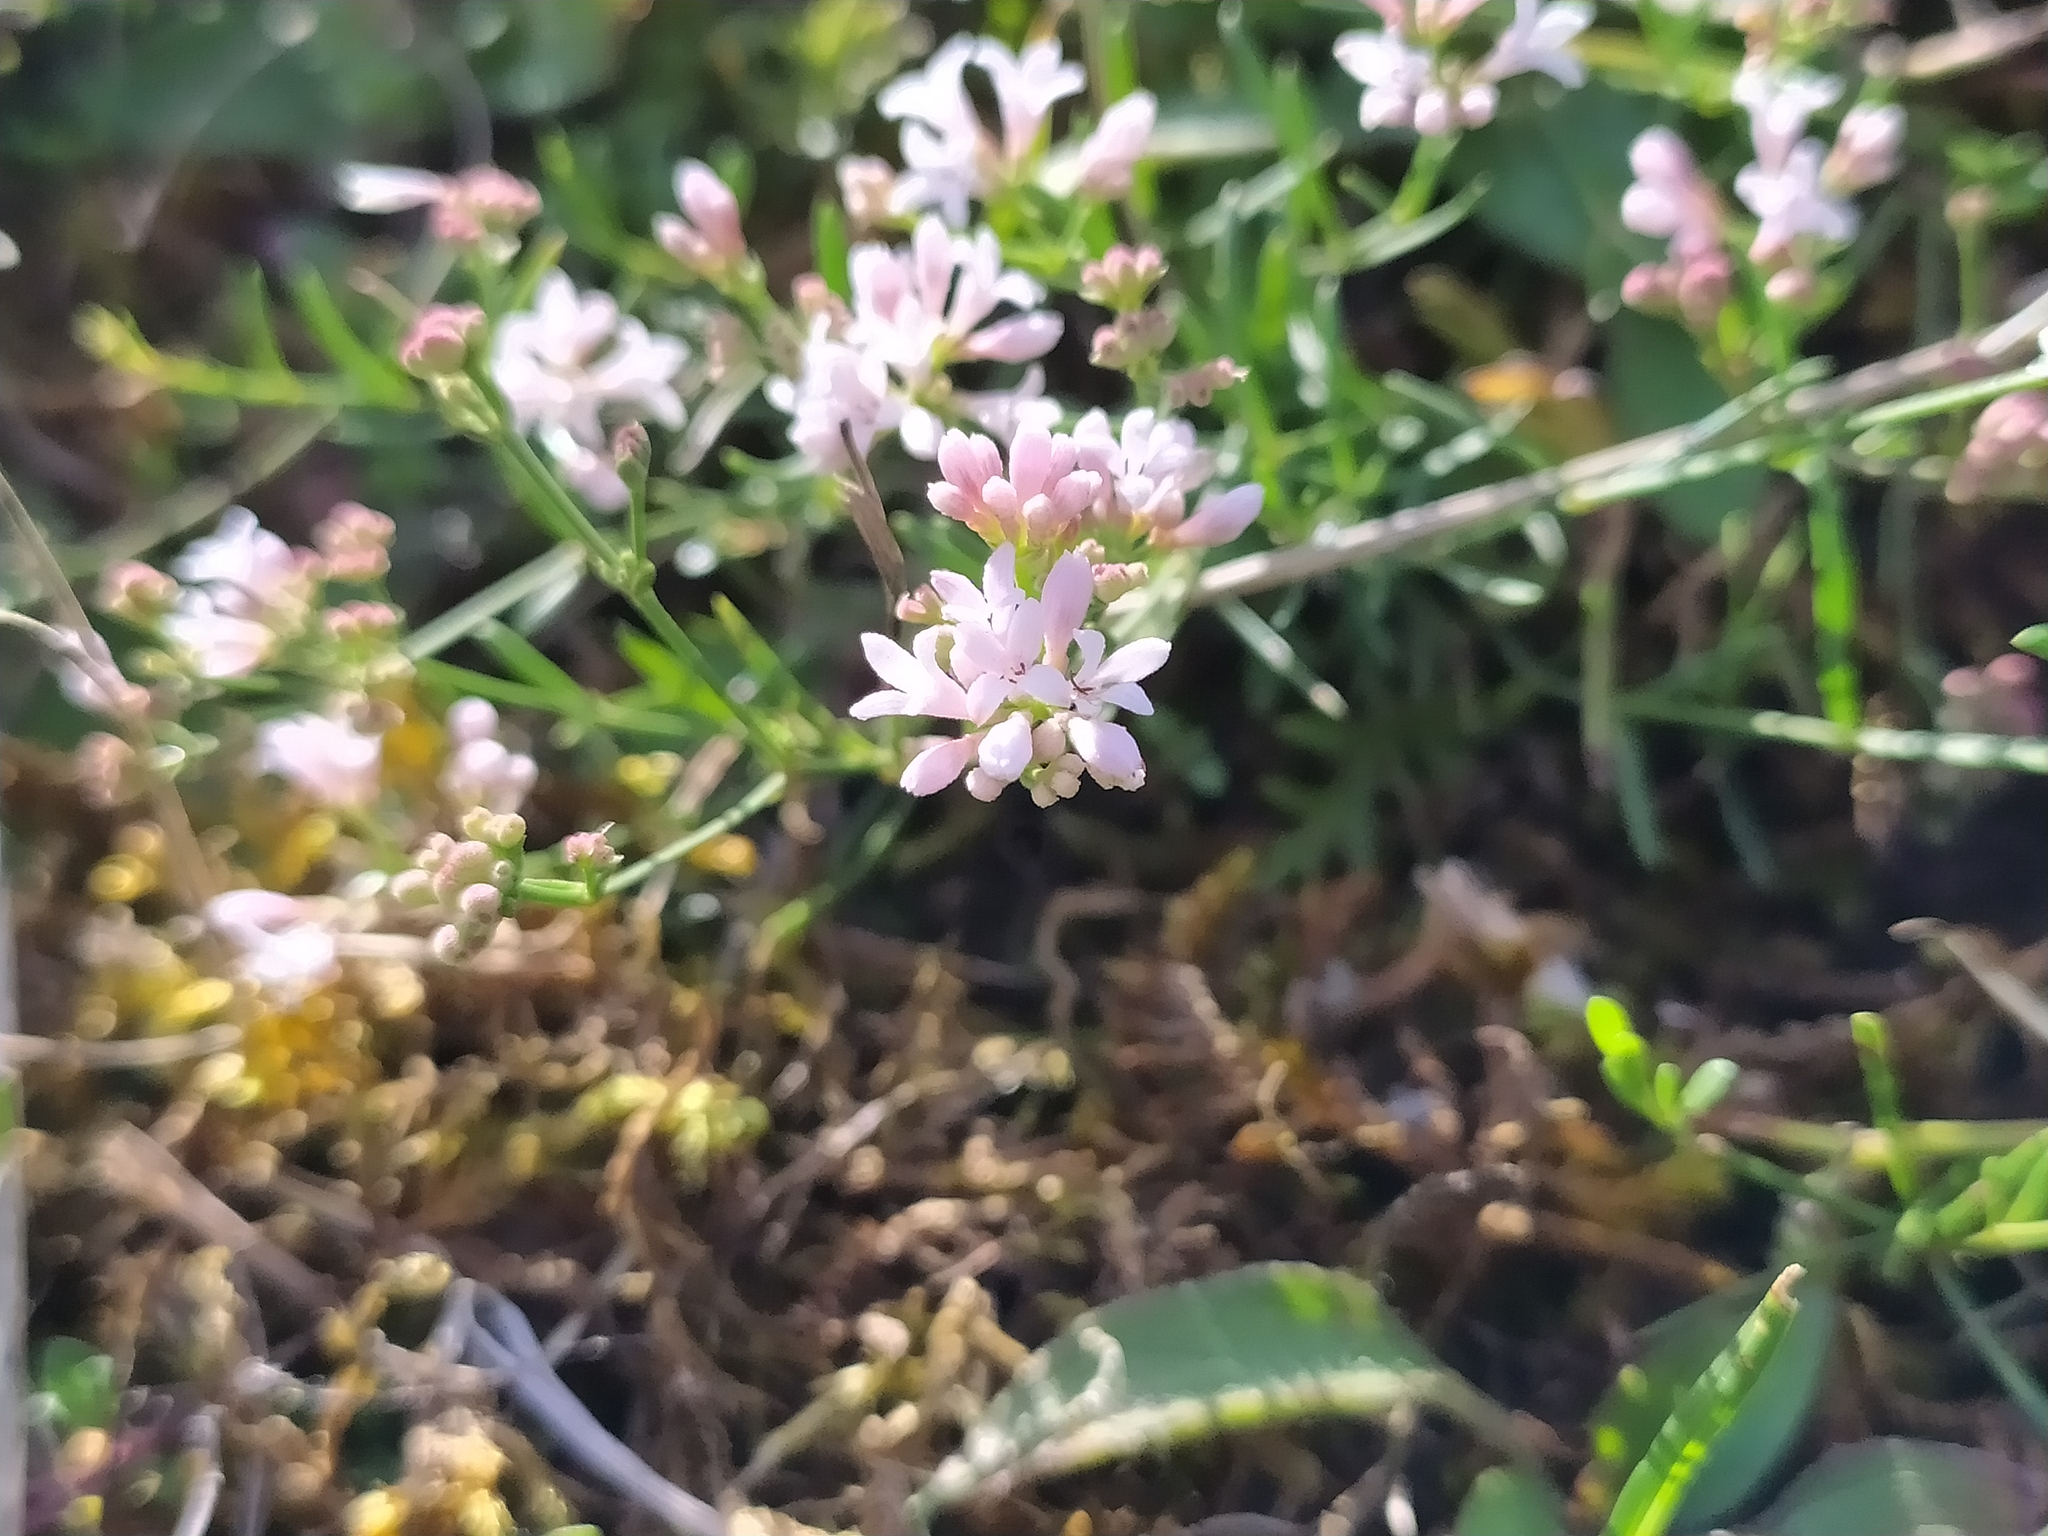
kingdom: Plantae
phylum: Tracheophyta
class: Magnoliopsida
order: Gentianales
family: Rubiaceae
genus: Cynanchica
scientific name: Cynanchica pyrenaica
